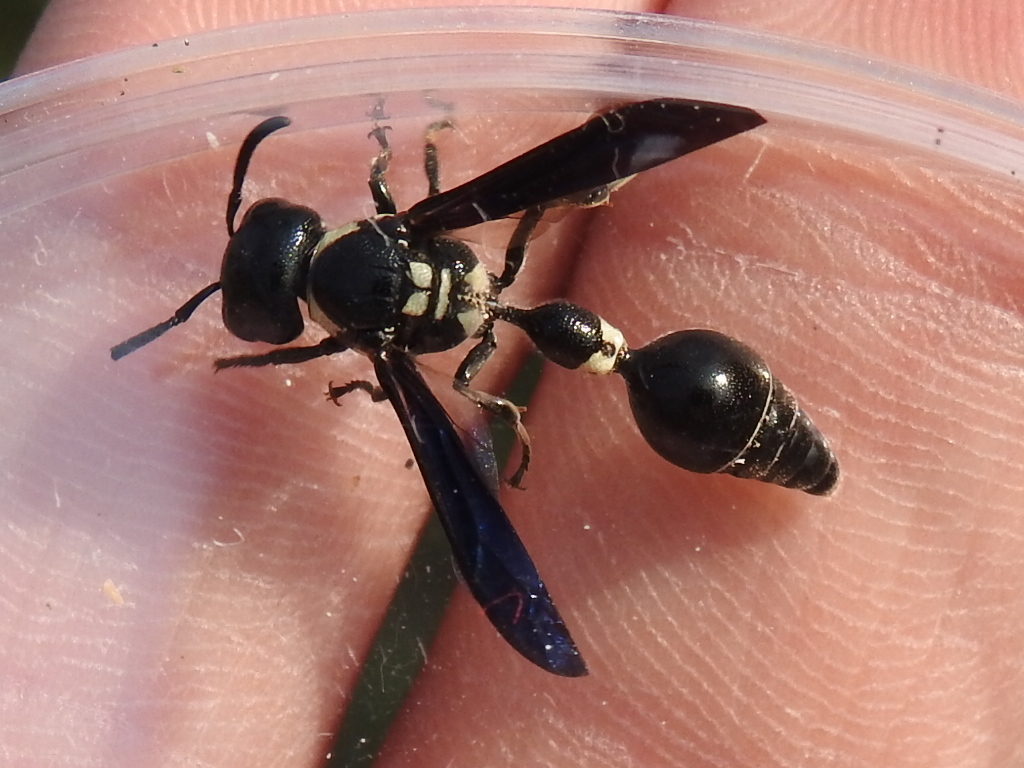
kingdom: Animalia
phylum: Arthropoda
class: Insecta
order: Hymenoptera
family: Eumenidae
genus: Zethus
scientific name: Zethus spinipes
